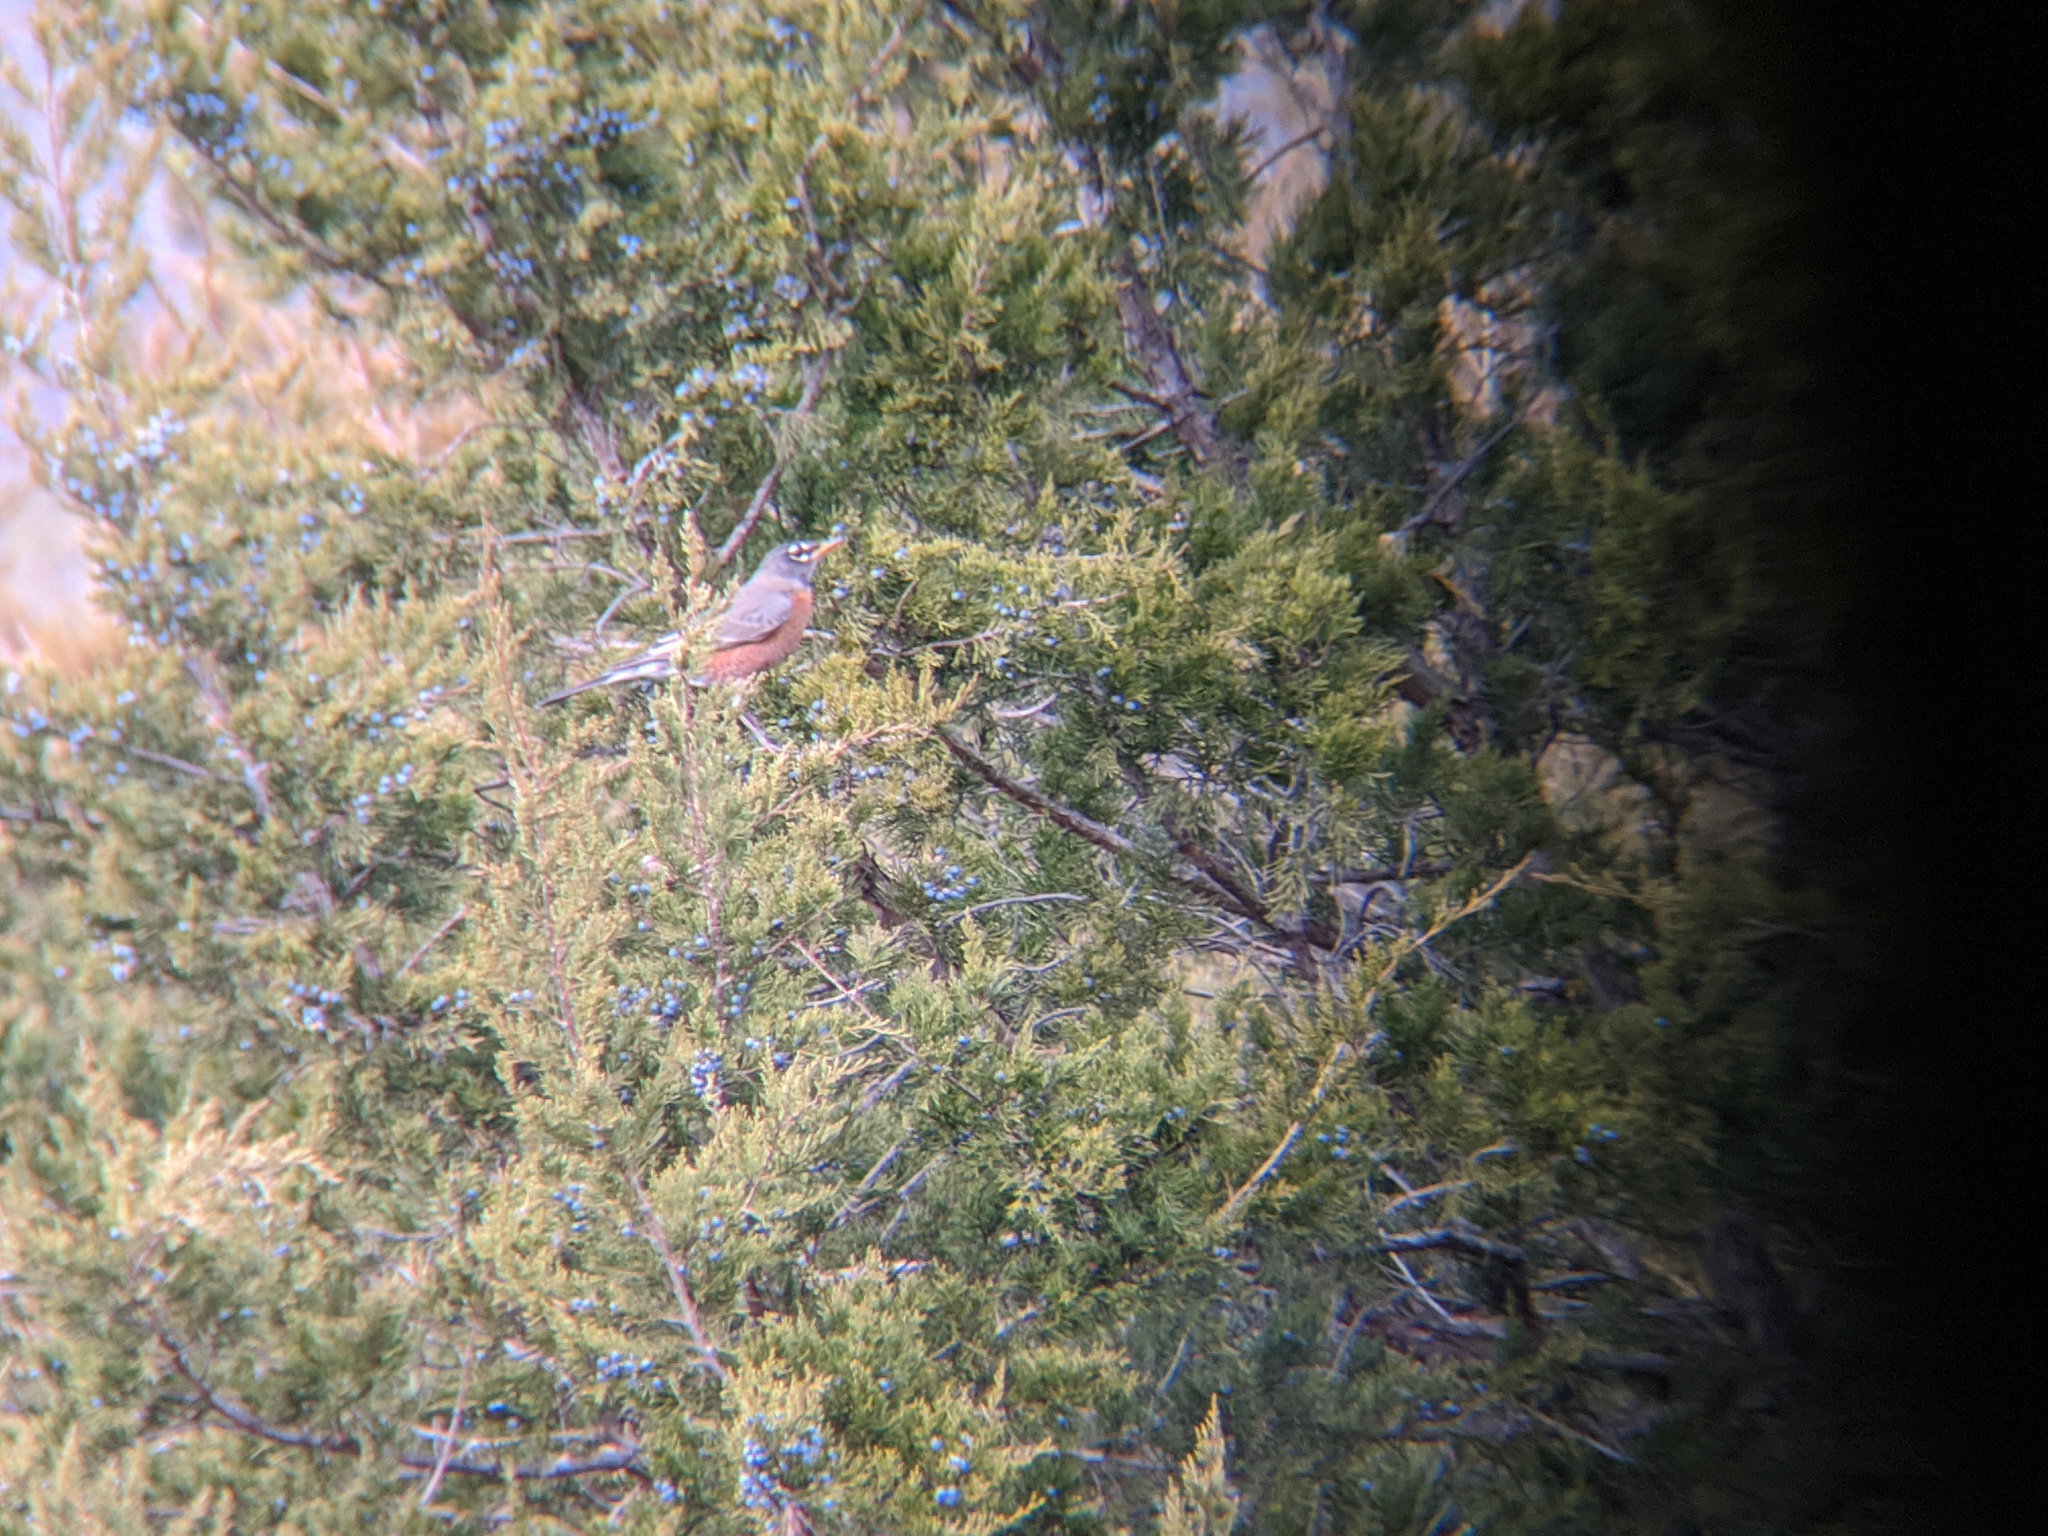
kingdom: Animalia
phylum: Chordata
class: Aves
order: Passeriformes
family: Turdidae
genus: Turdus
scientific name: Turdus migratorius
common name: American robin
